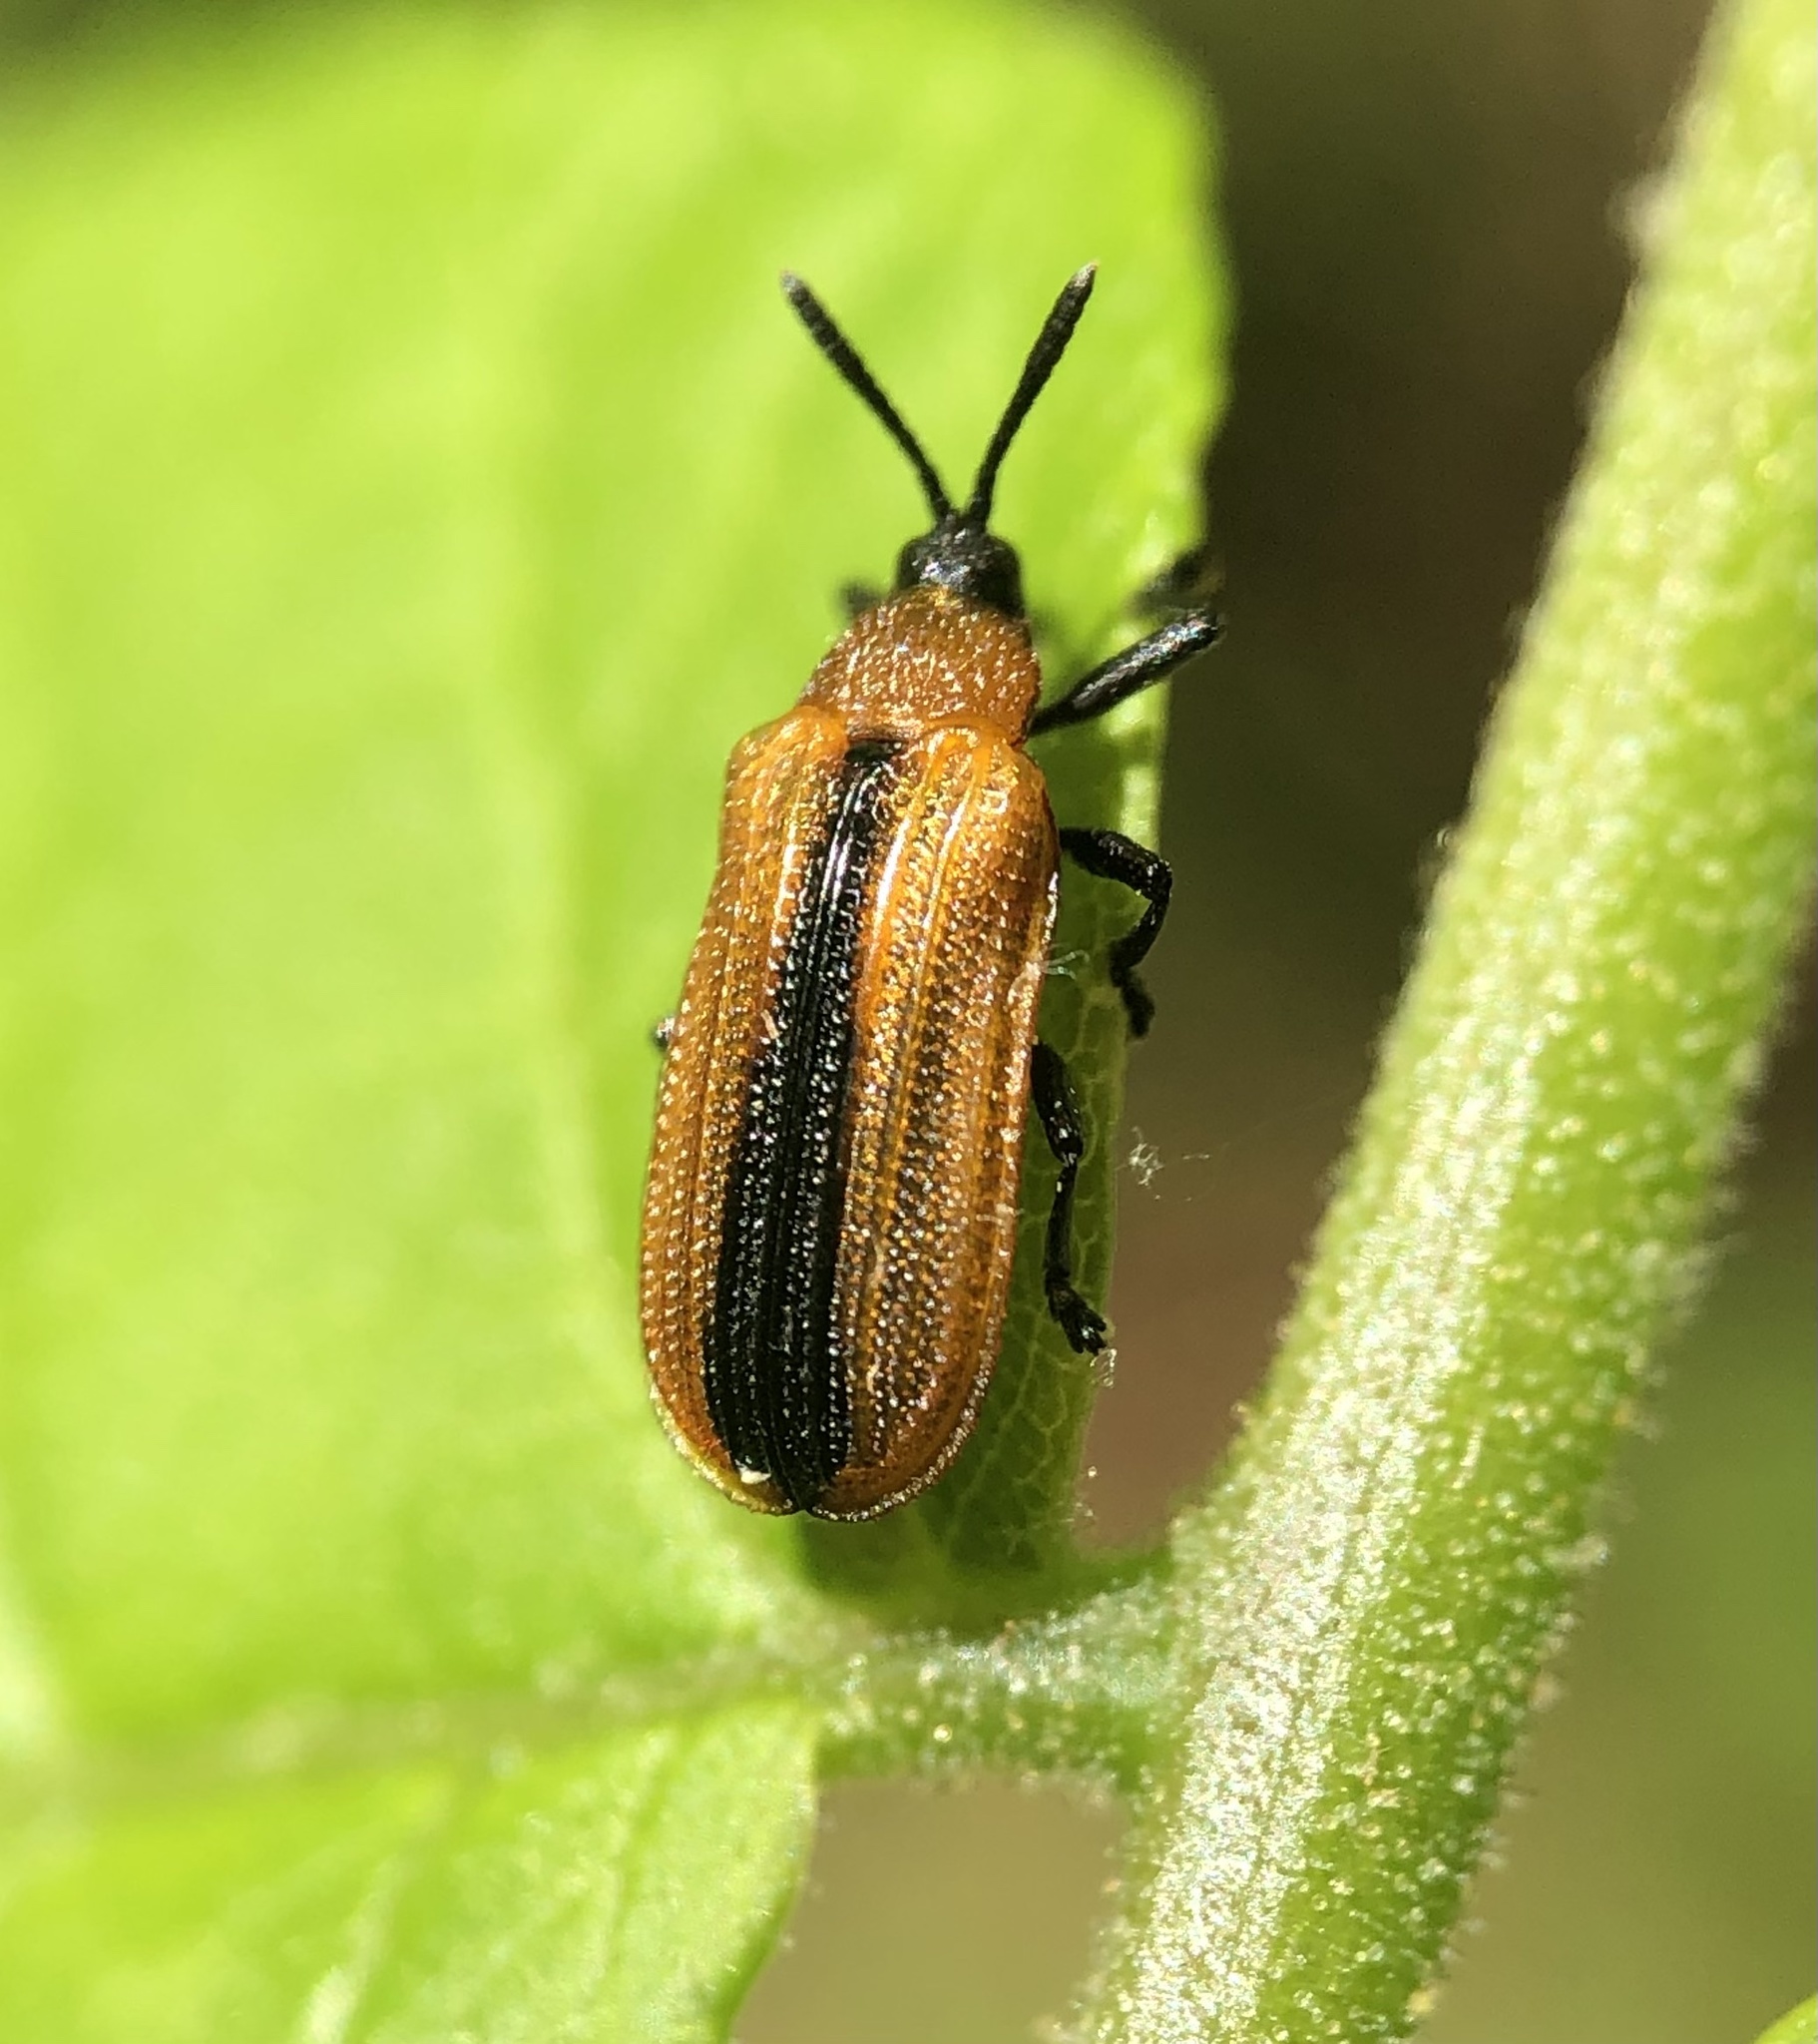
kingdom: Animalia
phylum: Arthropoda
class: Insecta
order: Coleoptera
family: Chrysomelidae
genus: Odontota
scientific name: Odontota dorsalis
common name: Locust leaf-miner beetle
